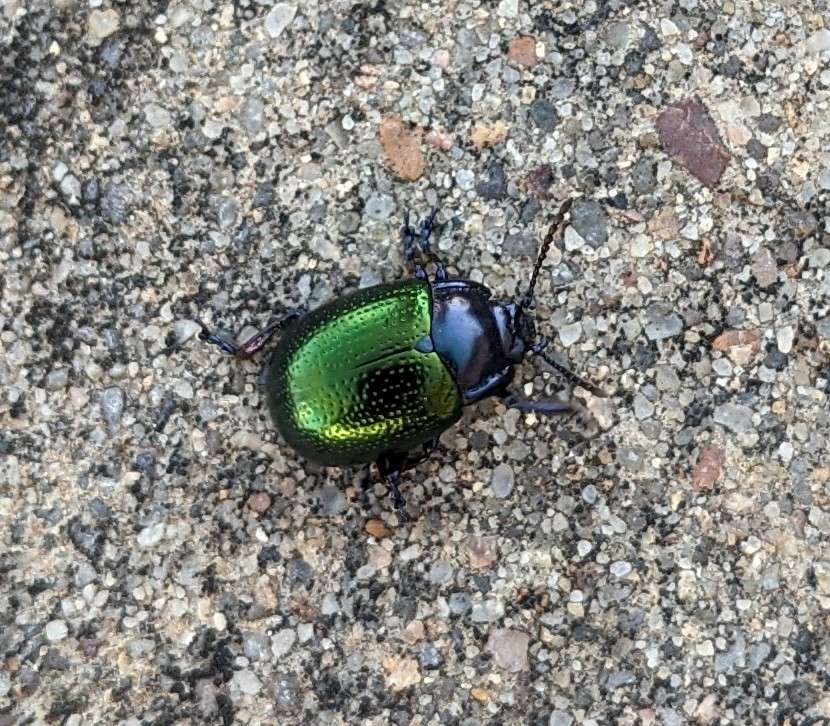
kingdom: Animalia
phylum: Arthropoda
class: Insecta
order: Coleoptera
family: Chrysomelidae
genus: Chrysolina
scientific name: Chrysolina auripennis
